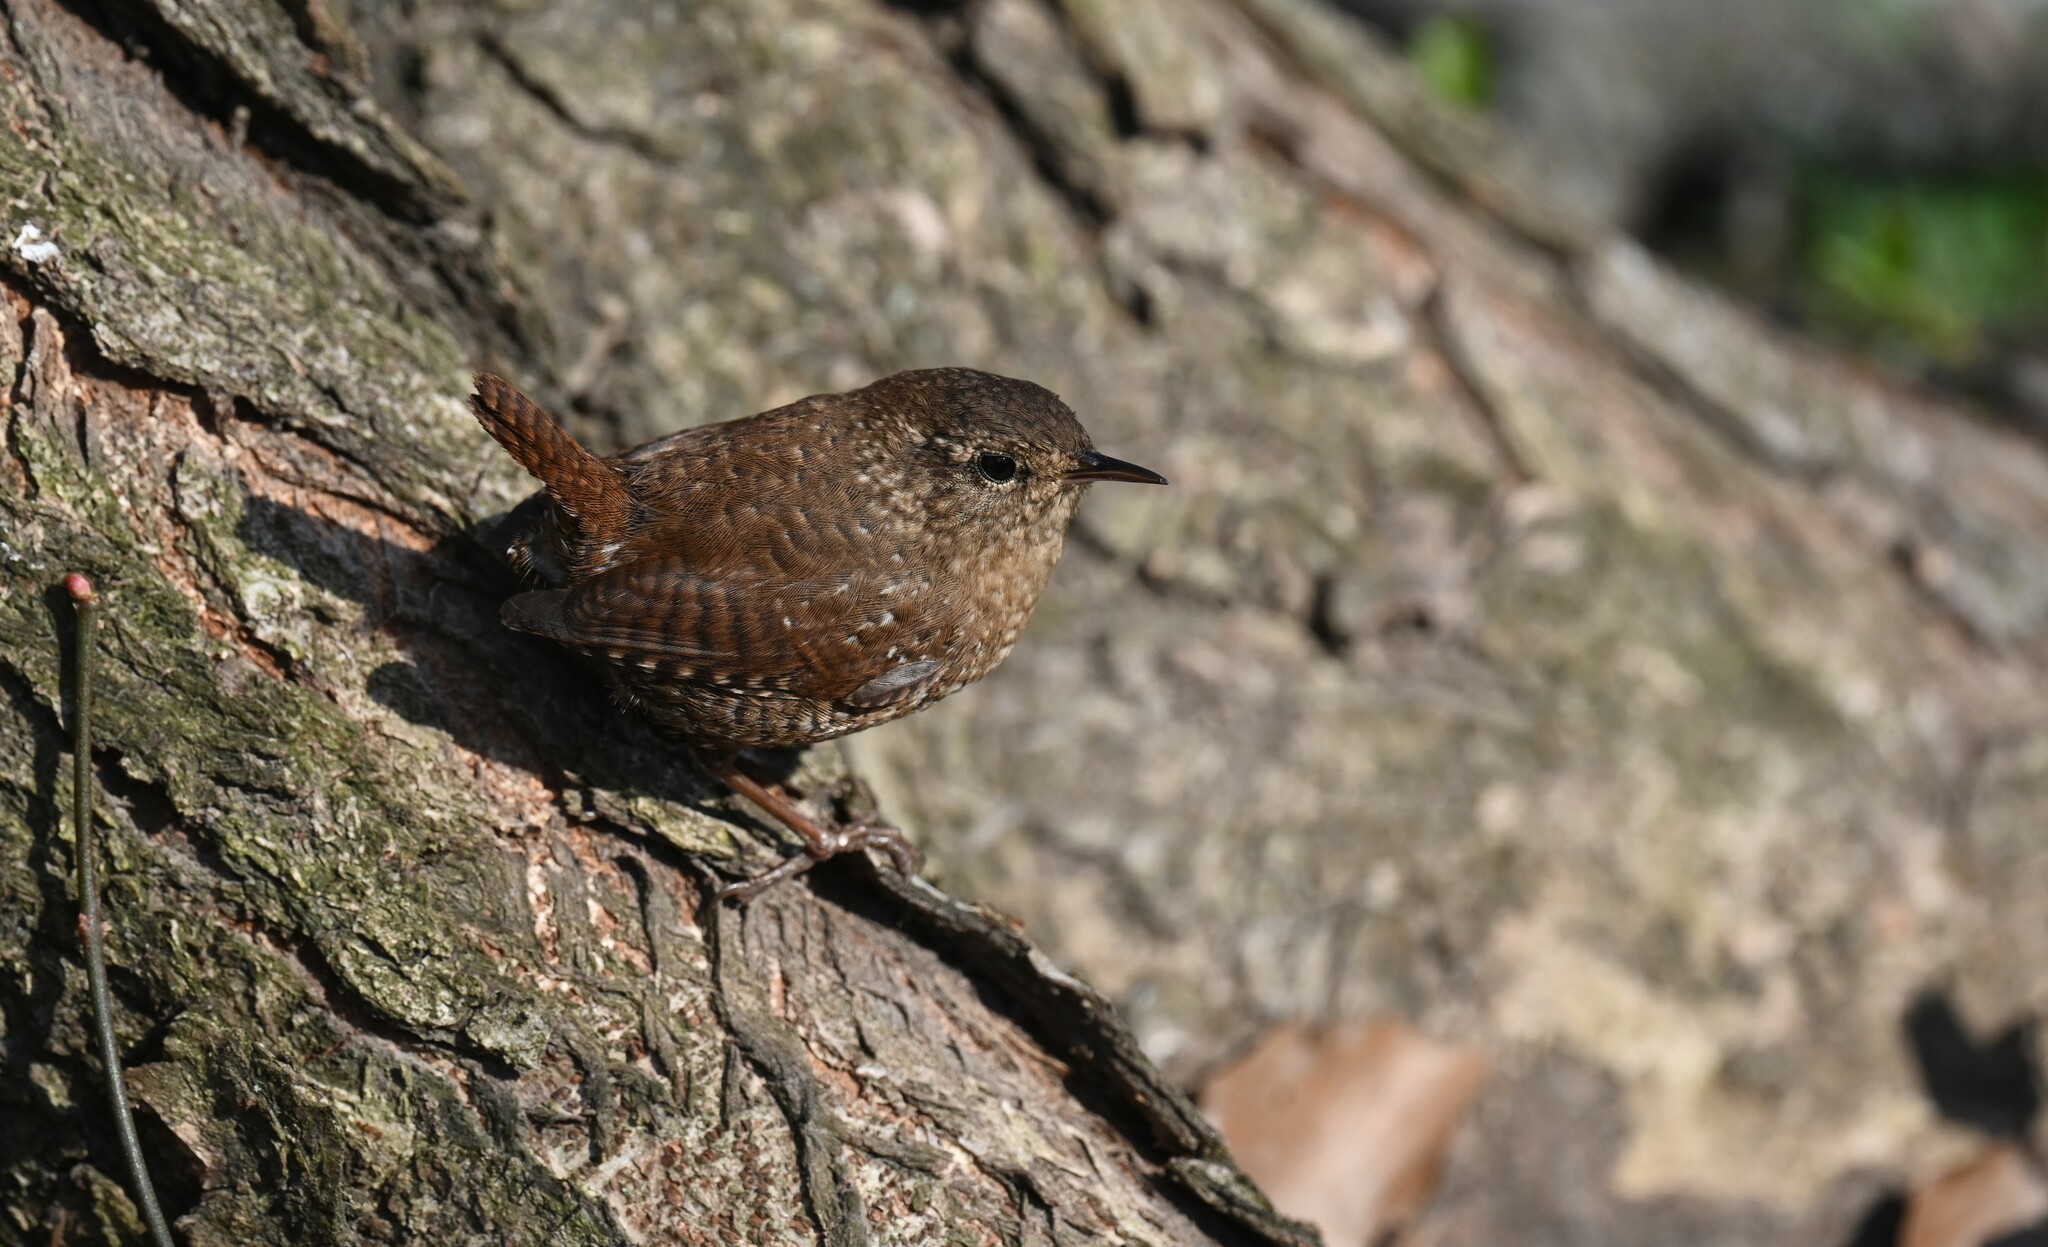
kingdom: Animalia
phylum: Chordata
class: Aves
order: Passeriformes
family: Troglodytidae
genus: Troglodytes
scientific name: Troglodytes hiemalis
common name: Winter wren
